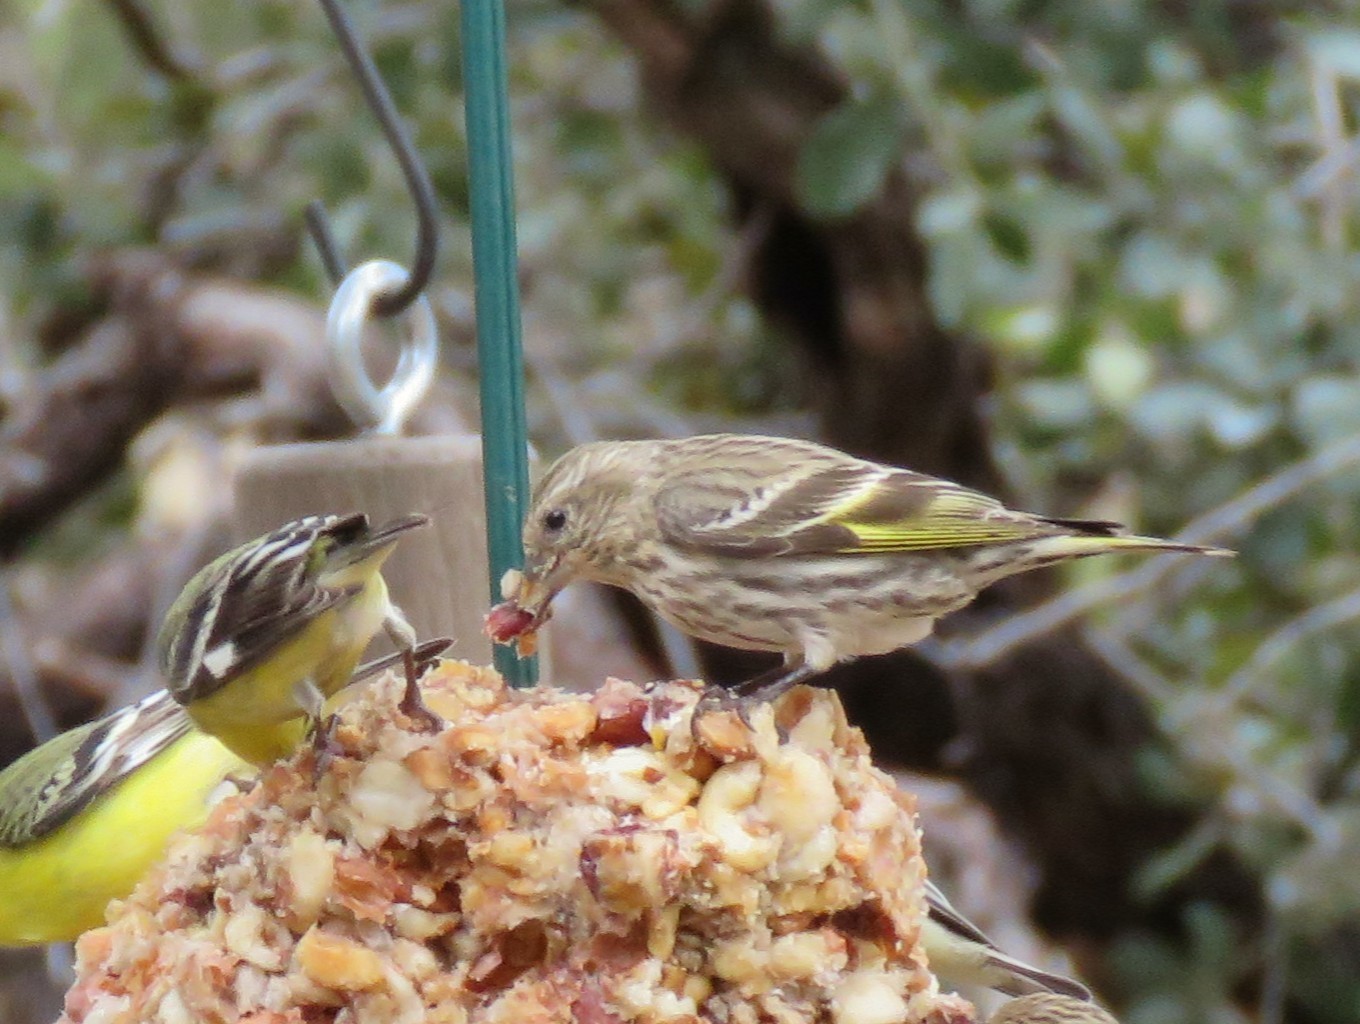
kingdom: Animalia
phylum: Chordata
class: Aves
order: Passeriformes
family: Fringillidae
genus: Spinus
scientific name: Spinus pinus
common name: Pine siskin
